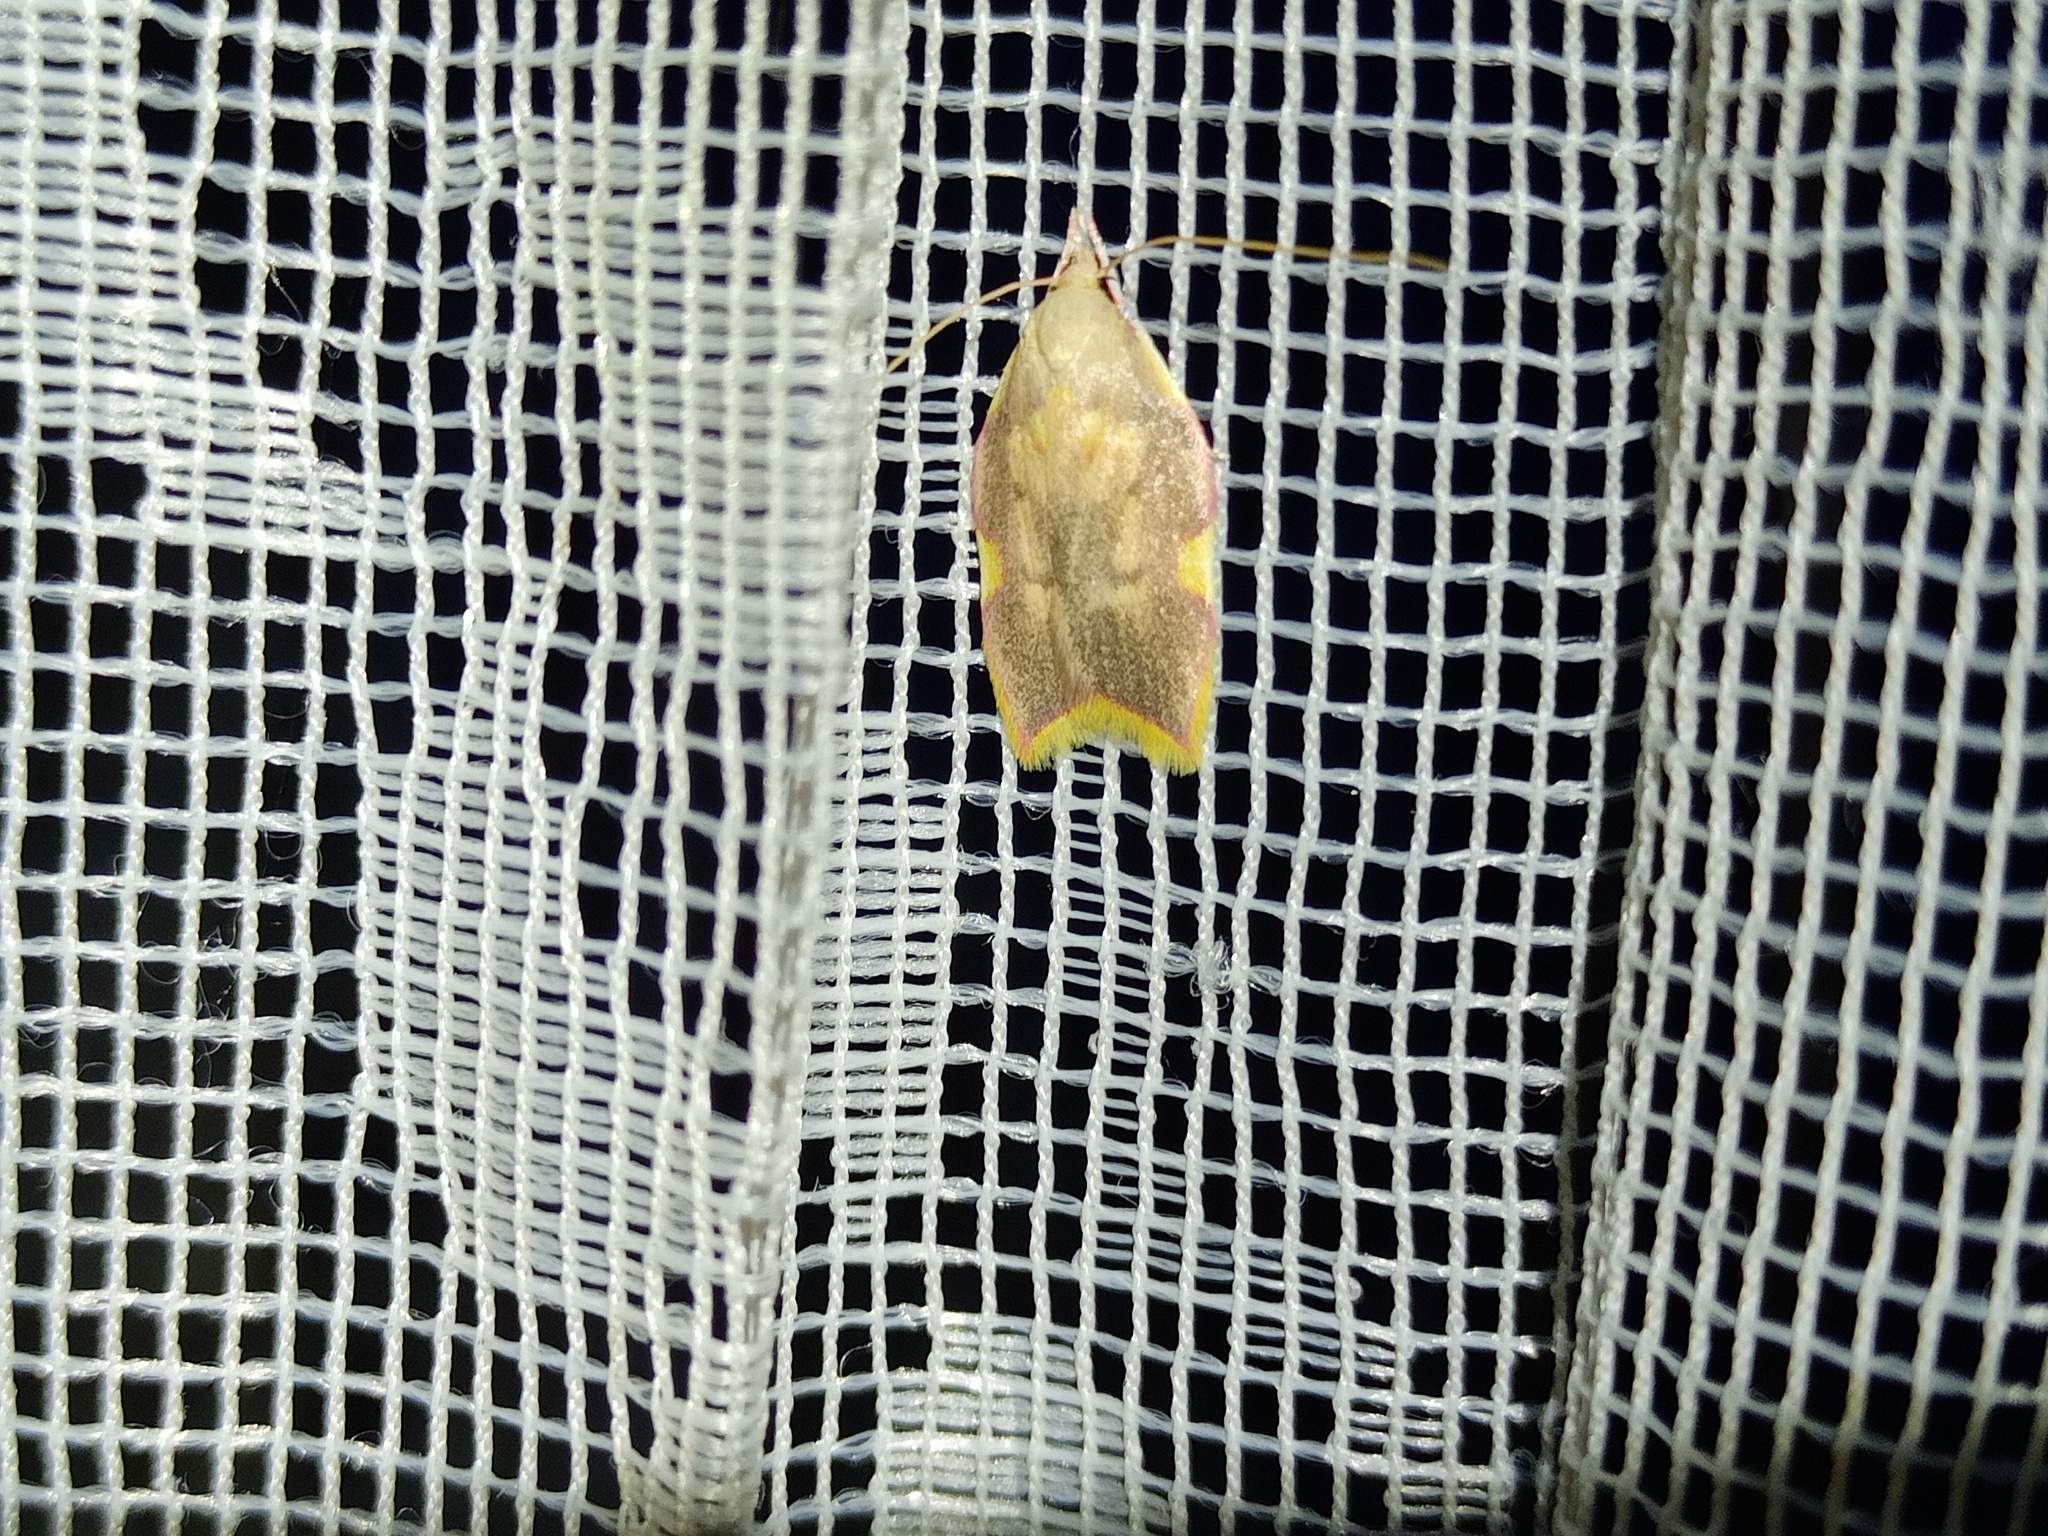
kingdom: Animalia
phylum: Arthropoda
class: Insecta
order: Lepidoptera
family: Peleopodidae
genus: Carcina
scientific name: Carcina quercana
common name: Moth
